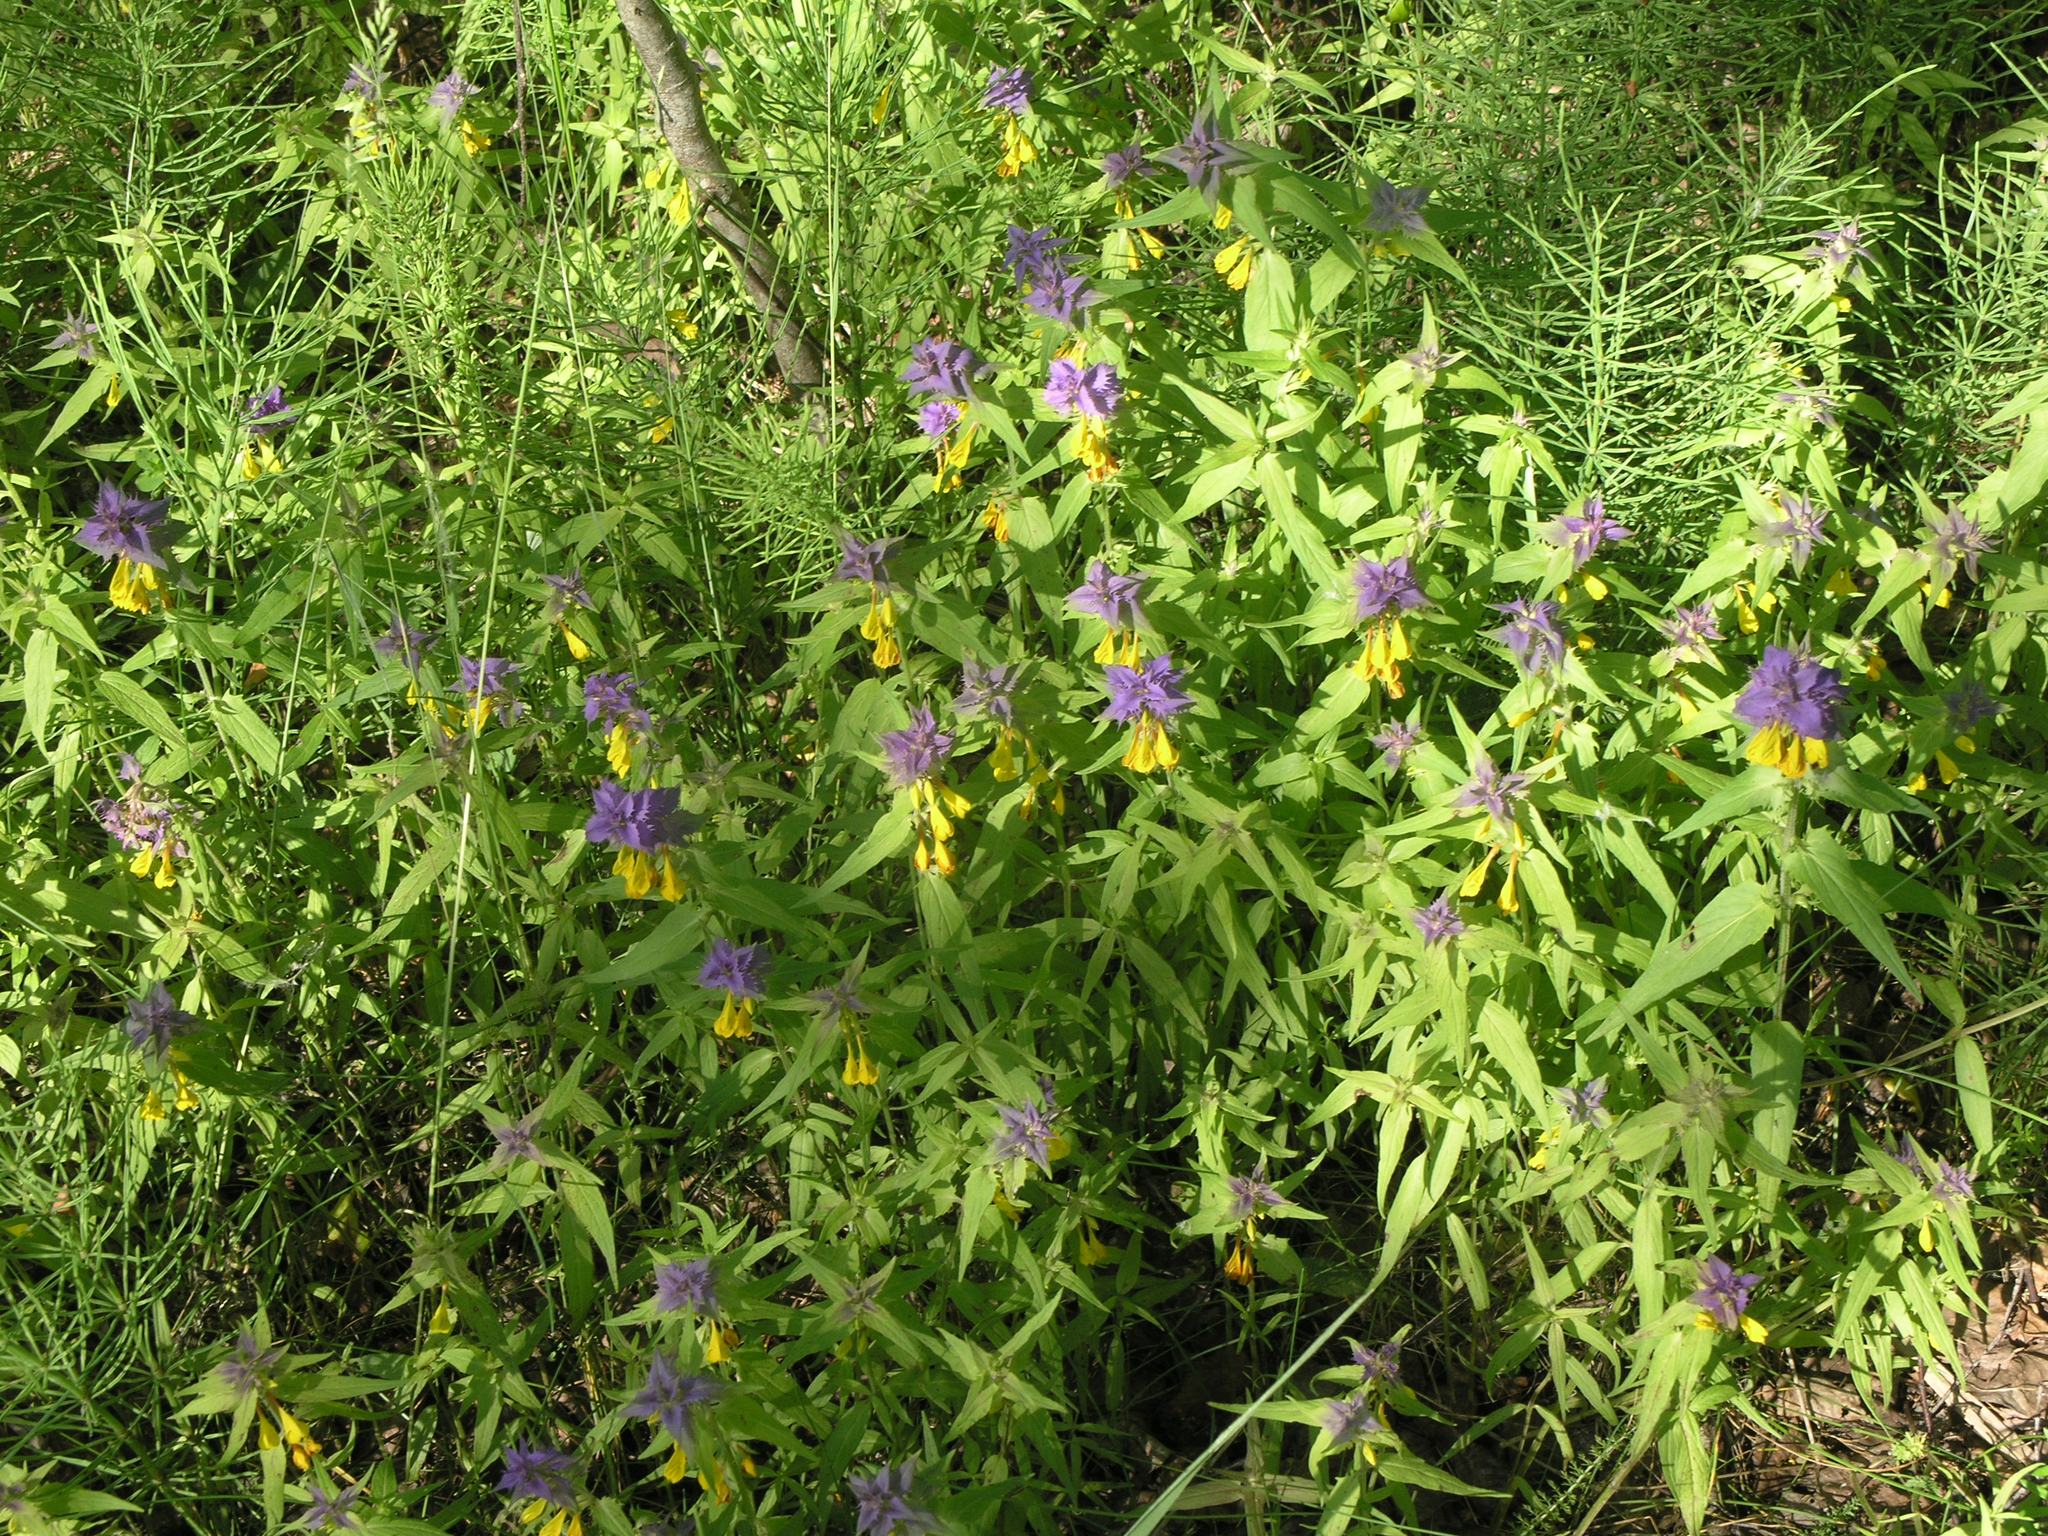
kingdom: Plantae
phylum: Tracheophyta
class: Magnoliopsida
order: Lamiales
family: Orobanchaceae
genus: Melampyrum
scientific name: Melampyrum nemorosum
